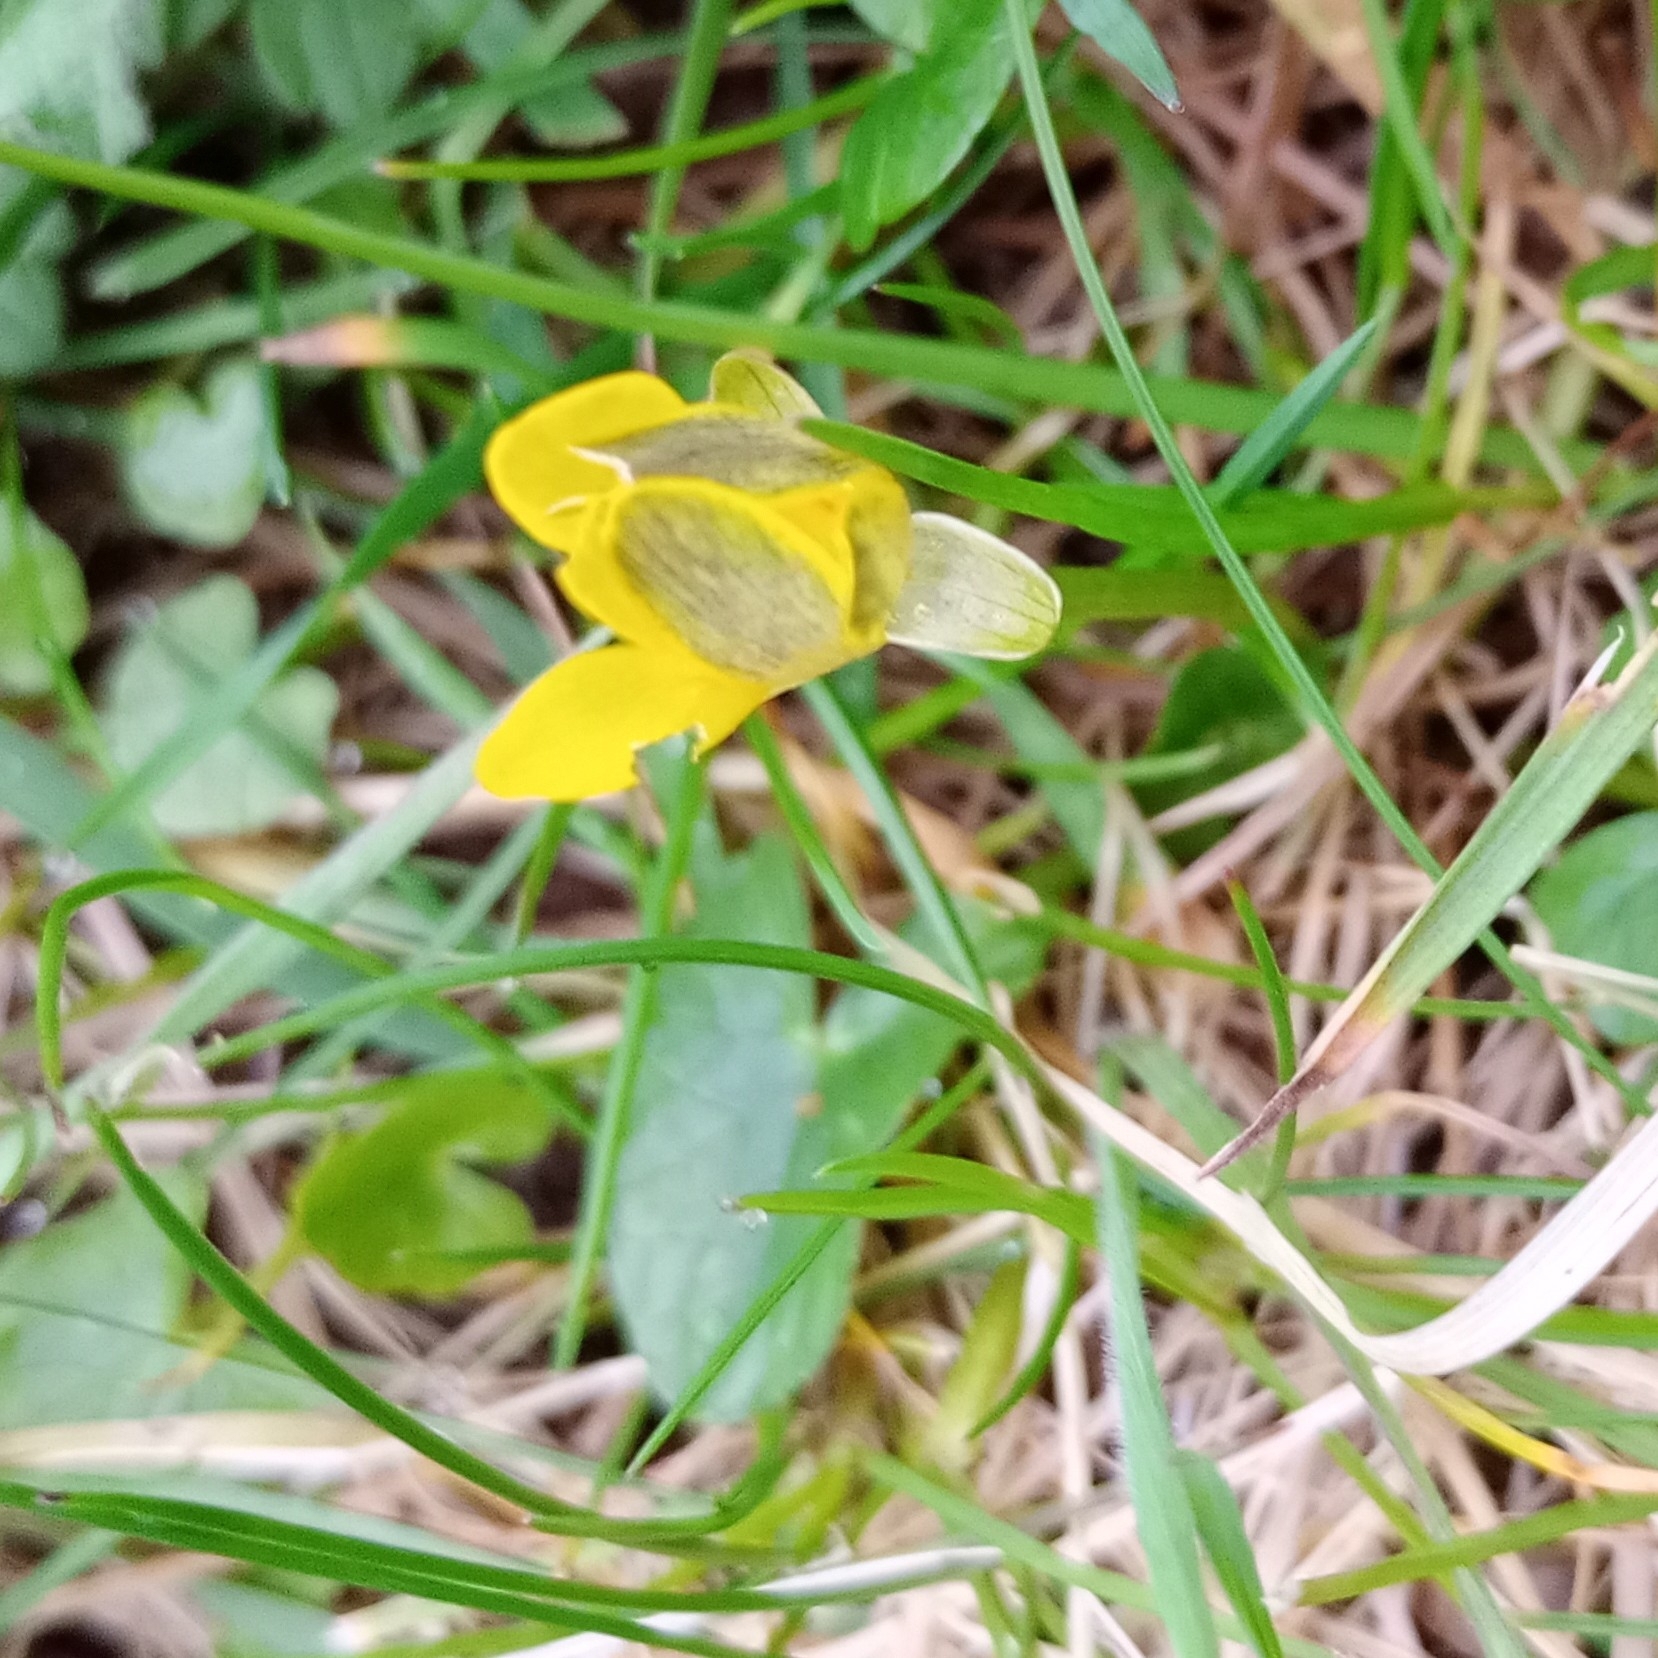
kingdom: Plantae
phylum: Tracheophyta
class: Magnoliopsida
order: Ranunculales
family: Ranunculaceae
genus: Ficaria
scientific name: Ficaria verna
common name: Lesser celandine
